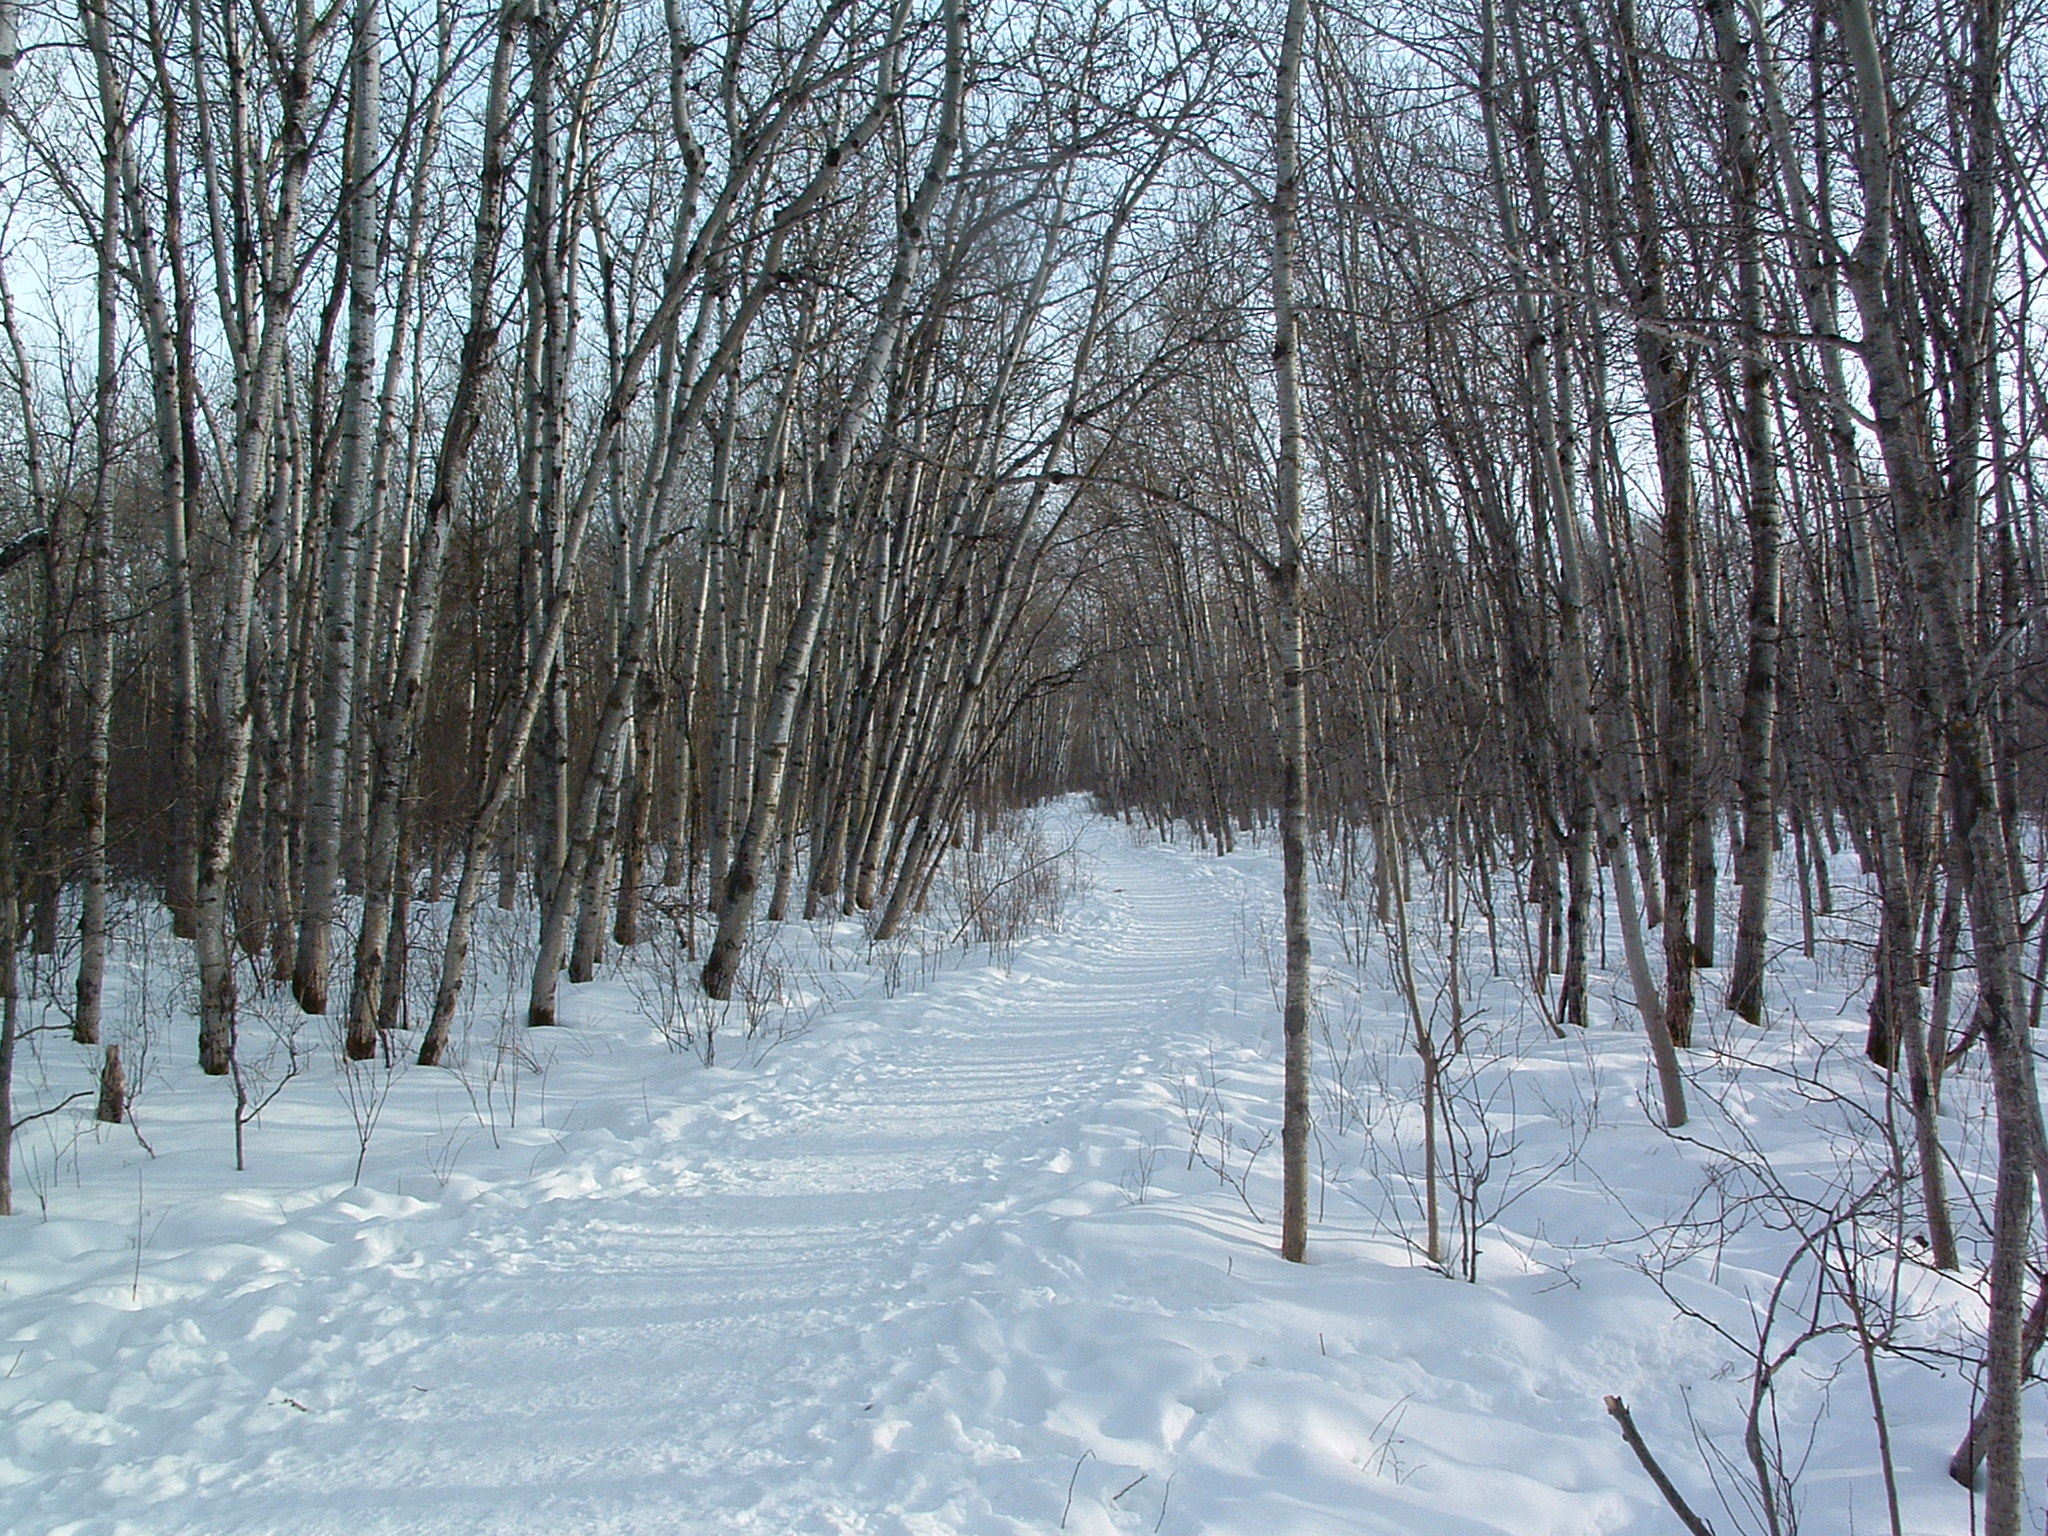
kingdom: Plantae
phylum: Tracheophyta
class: Magnoliopsida
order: Malpighiales
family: Salicaceae
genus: Populus
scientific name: Populus tremuloides
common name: Quaking aspen
